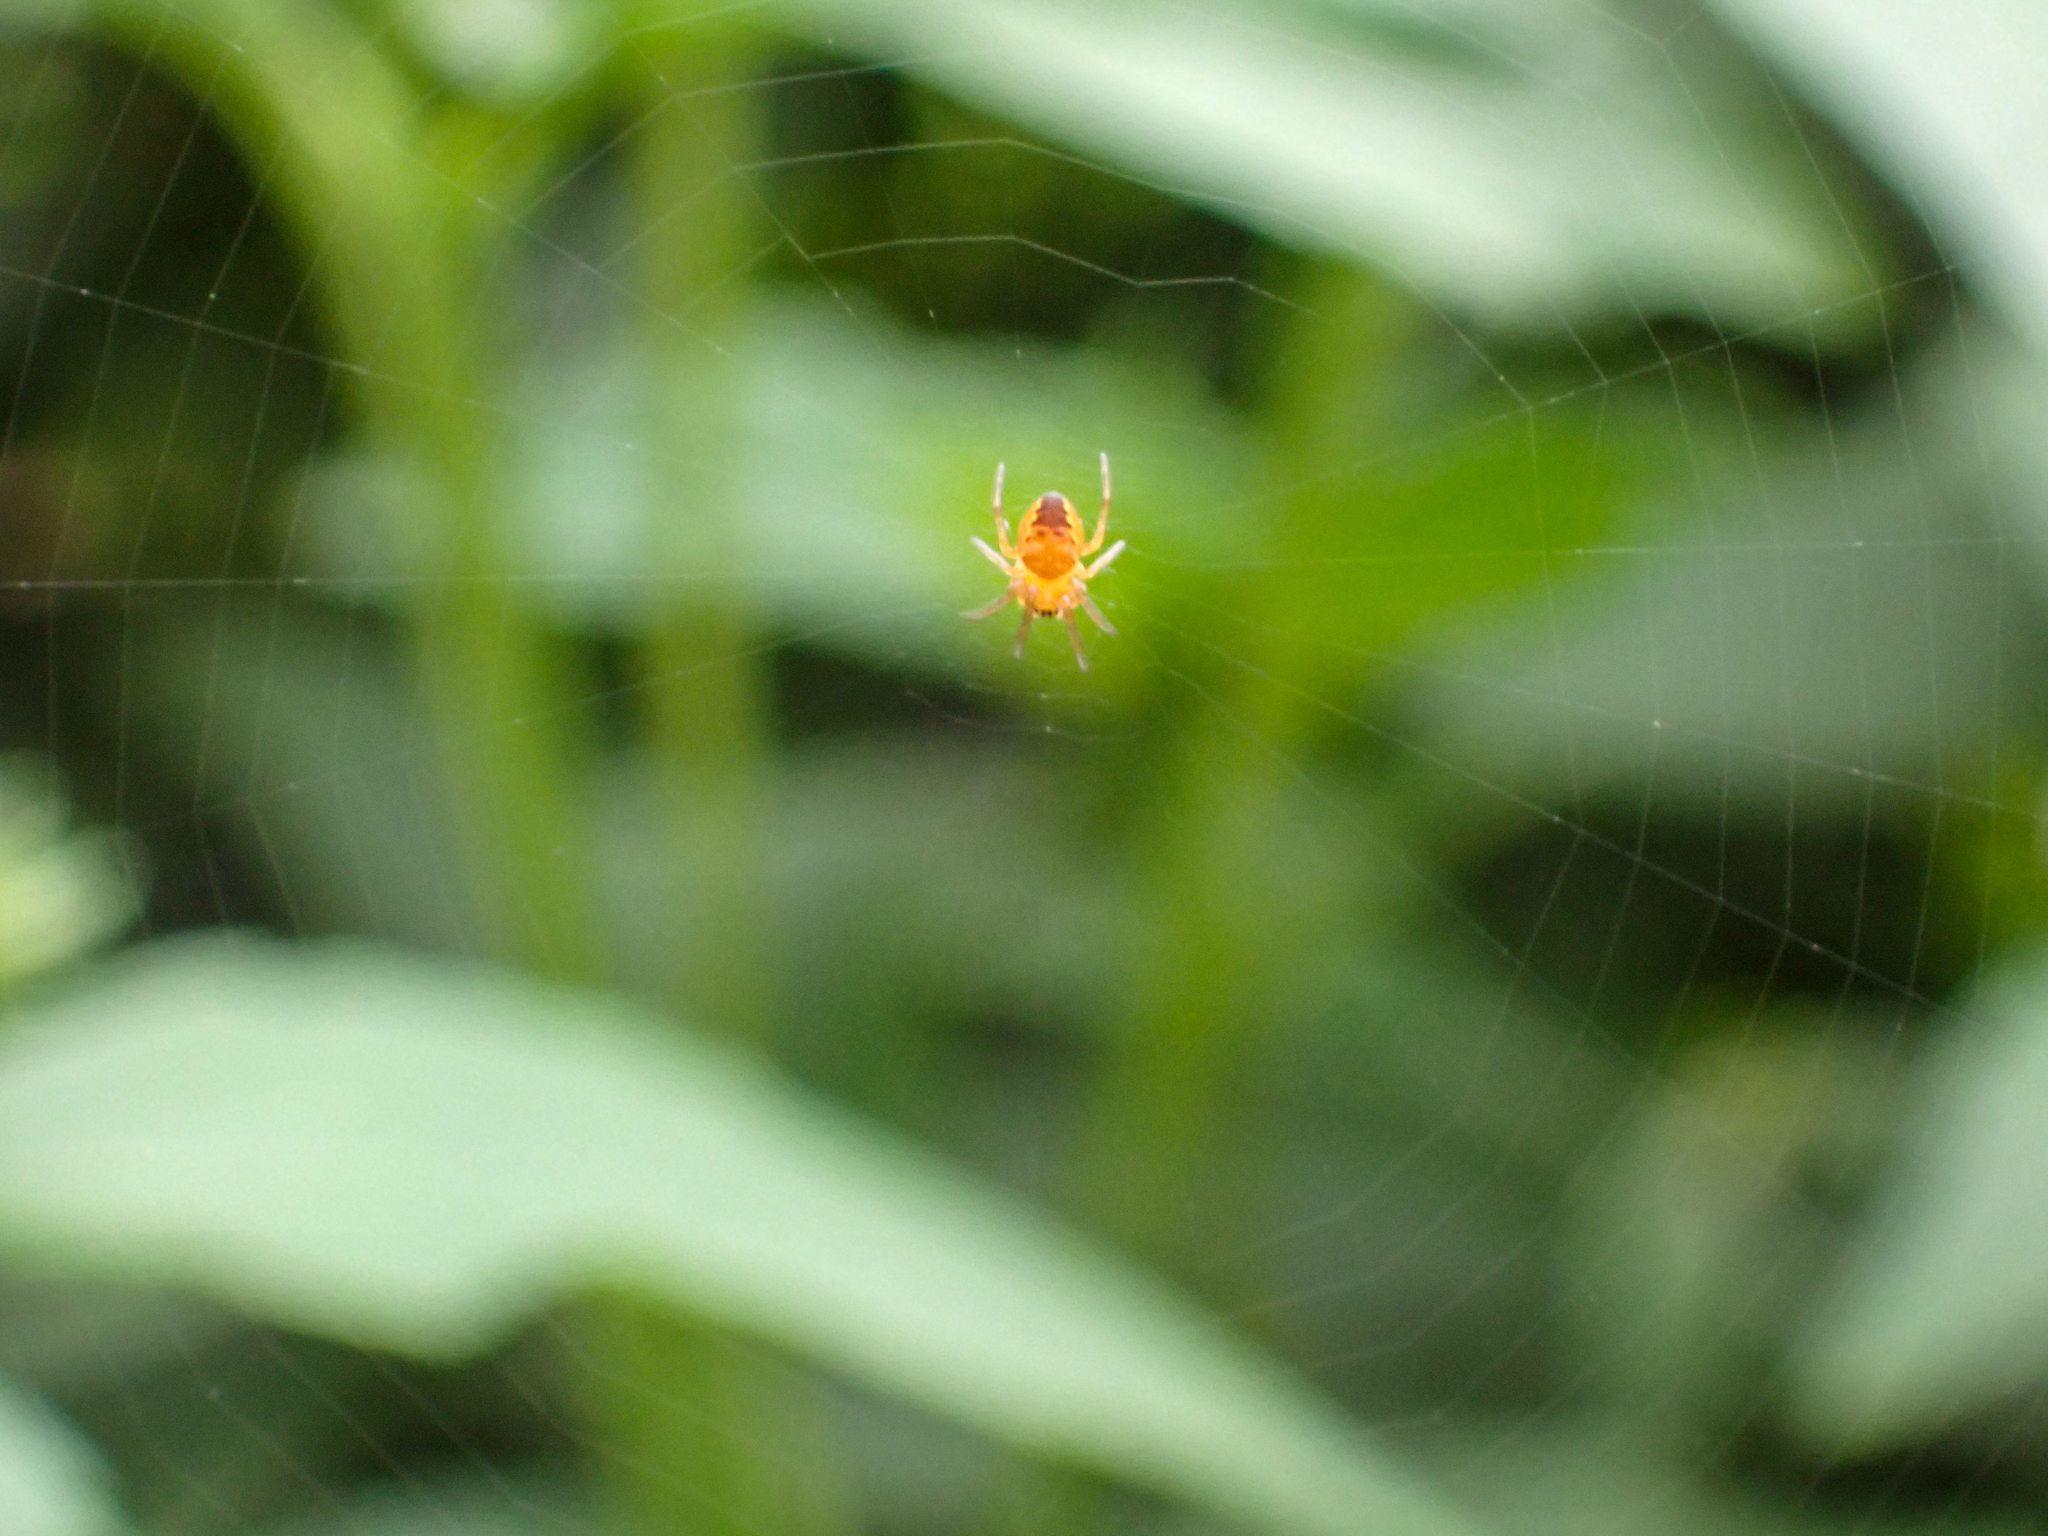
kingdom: Animalia
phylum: Arthropoda
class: Arachnida
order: Araneae
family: Araneidae
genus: Araneus
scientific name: Araneus
